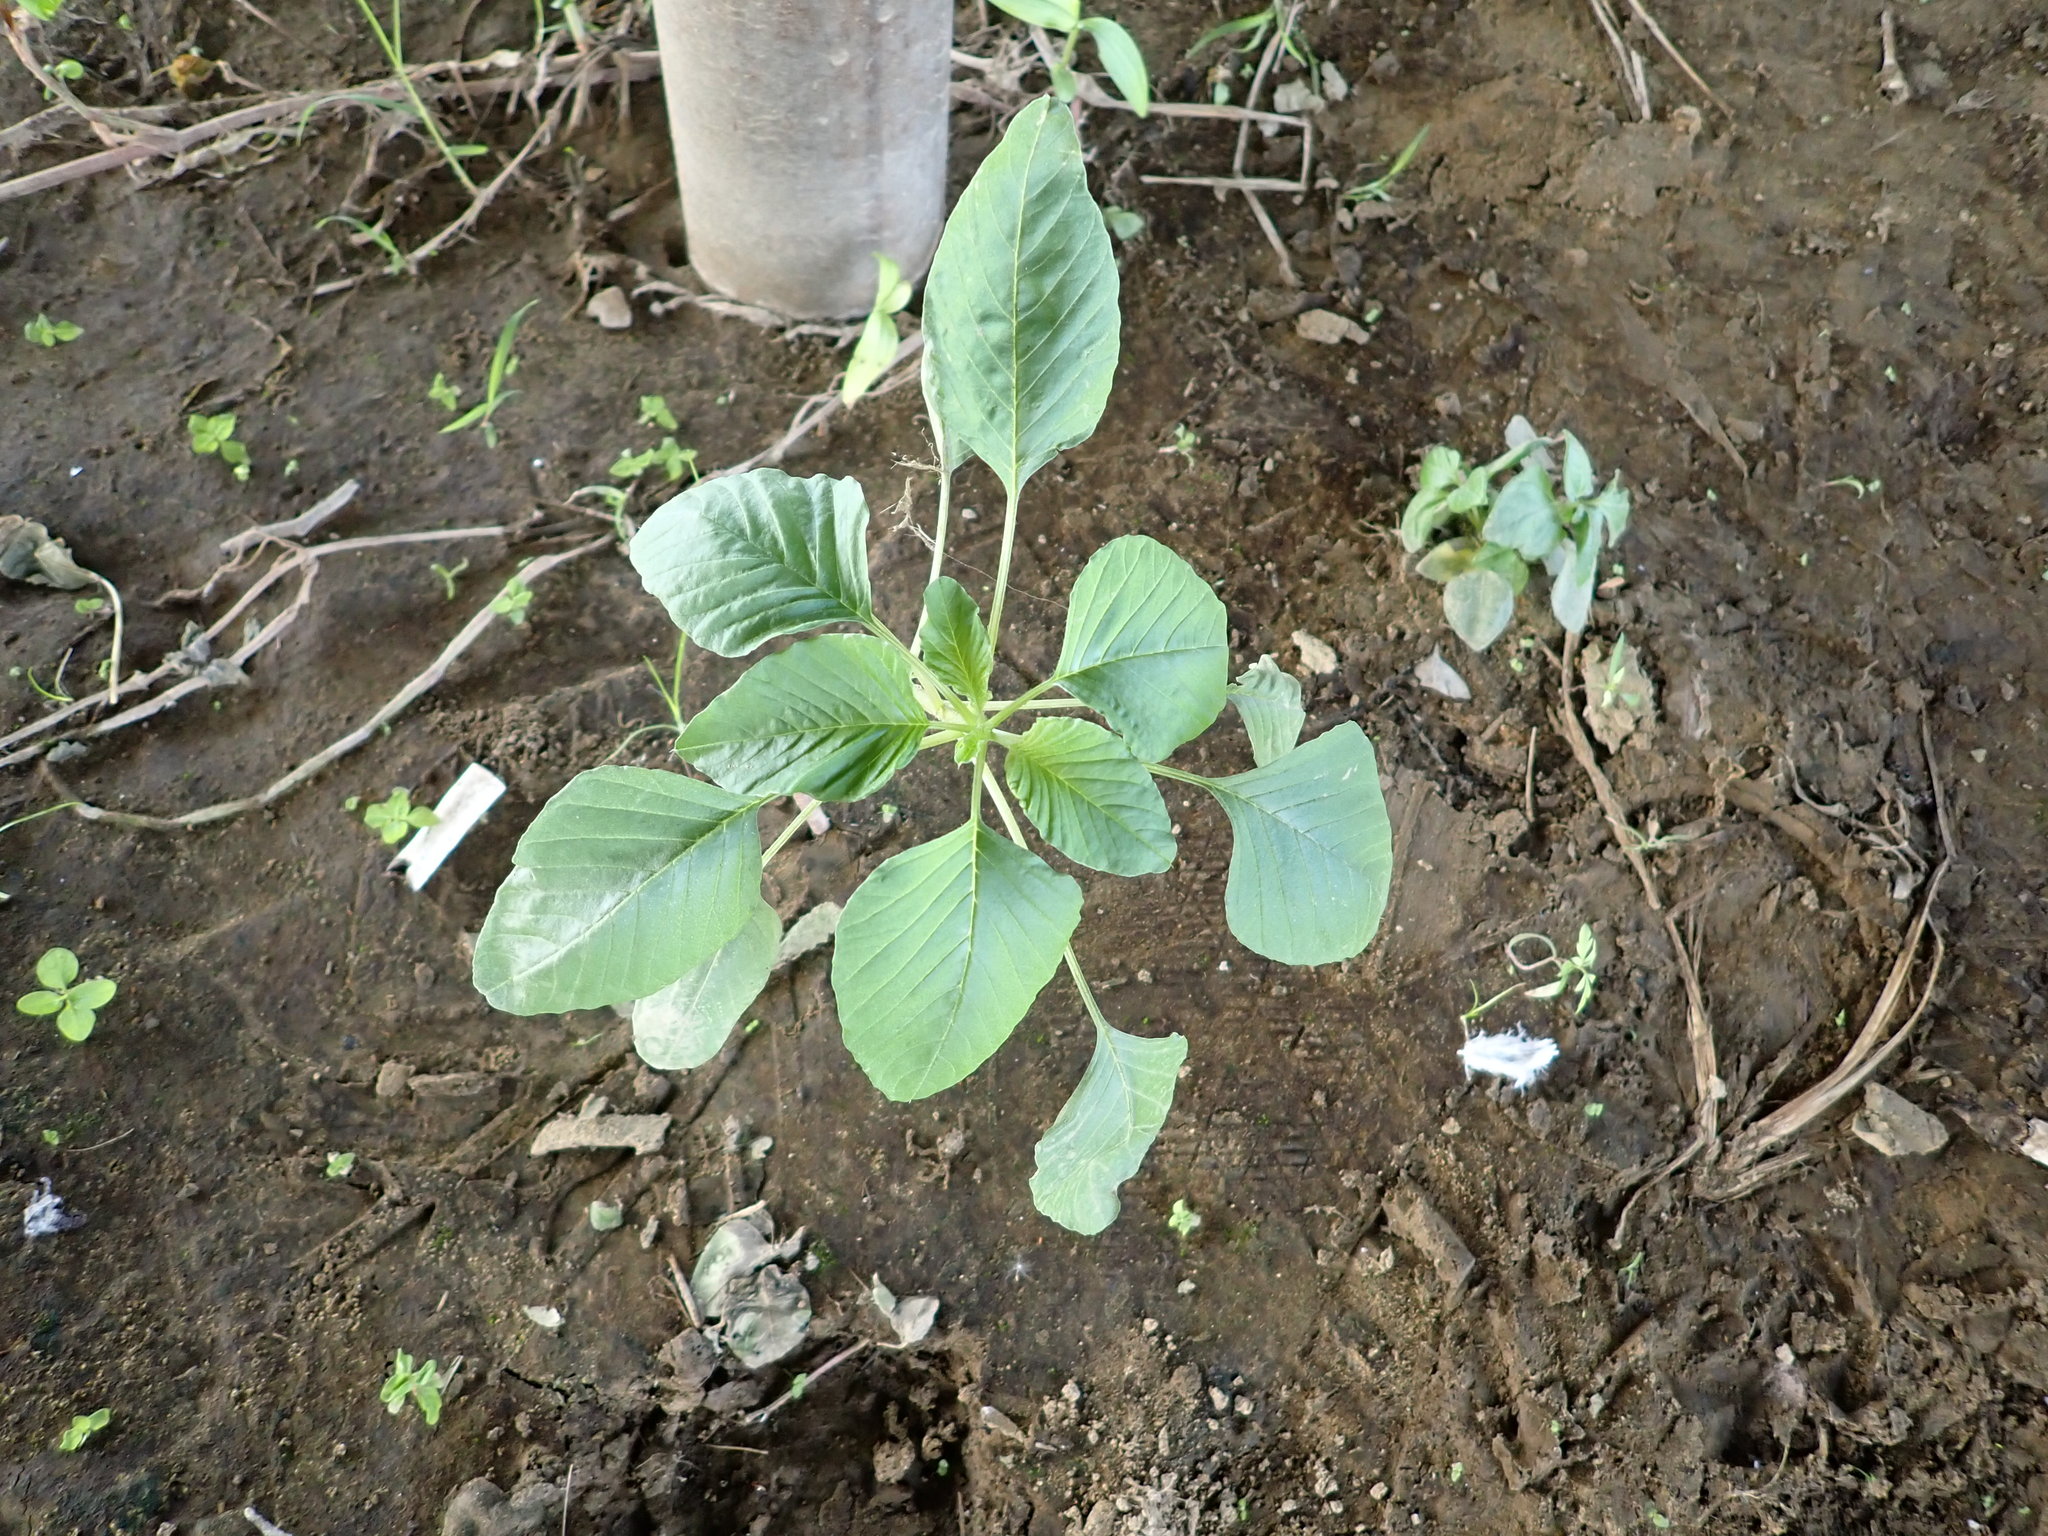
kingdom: Plantae
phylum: Tracheophyta
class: Magnoliopsida
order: Caryophyllales
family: Amaranthaceae
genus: Amaranthus
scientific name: Amaranthus viridis
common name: Slender amaranth
